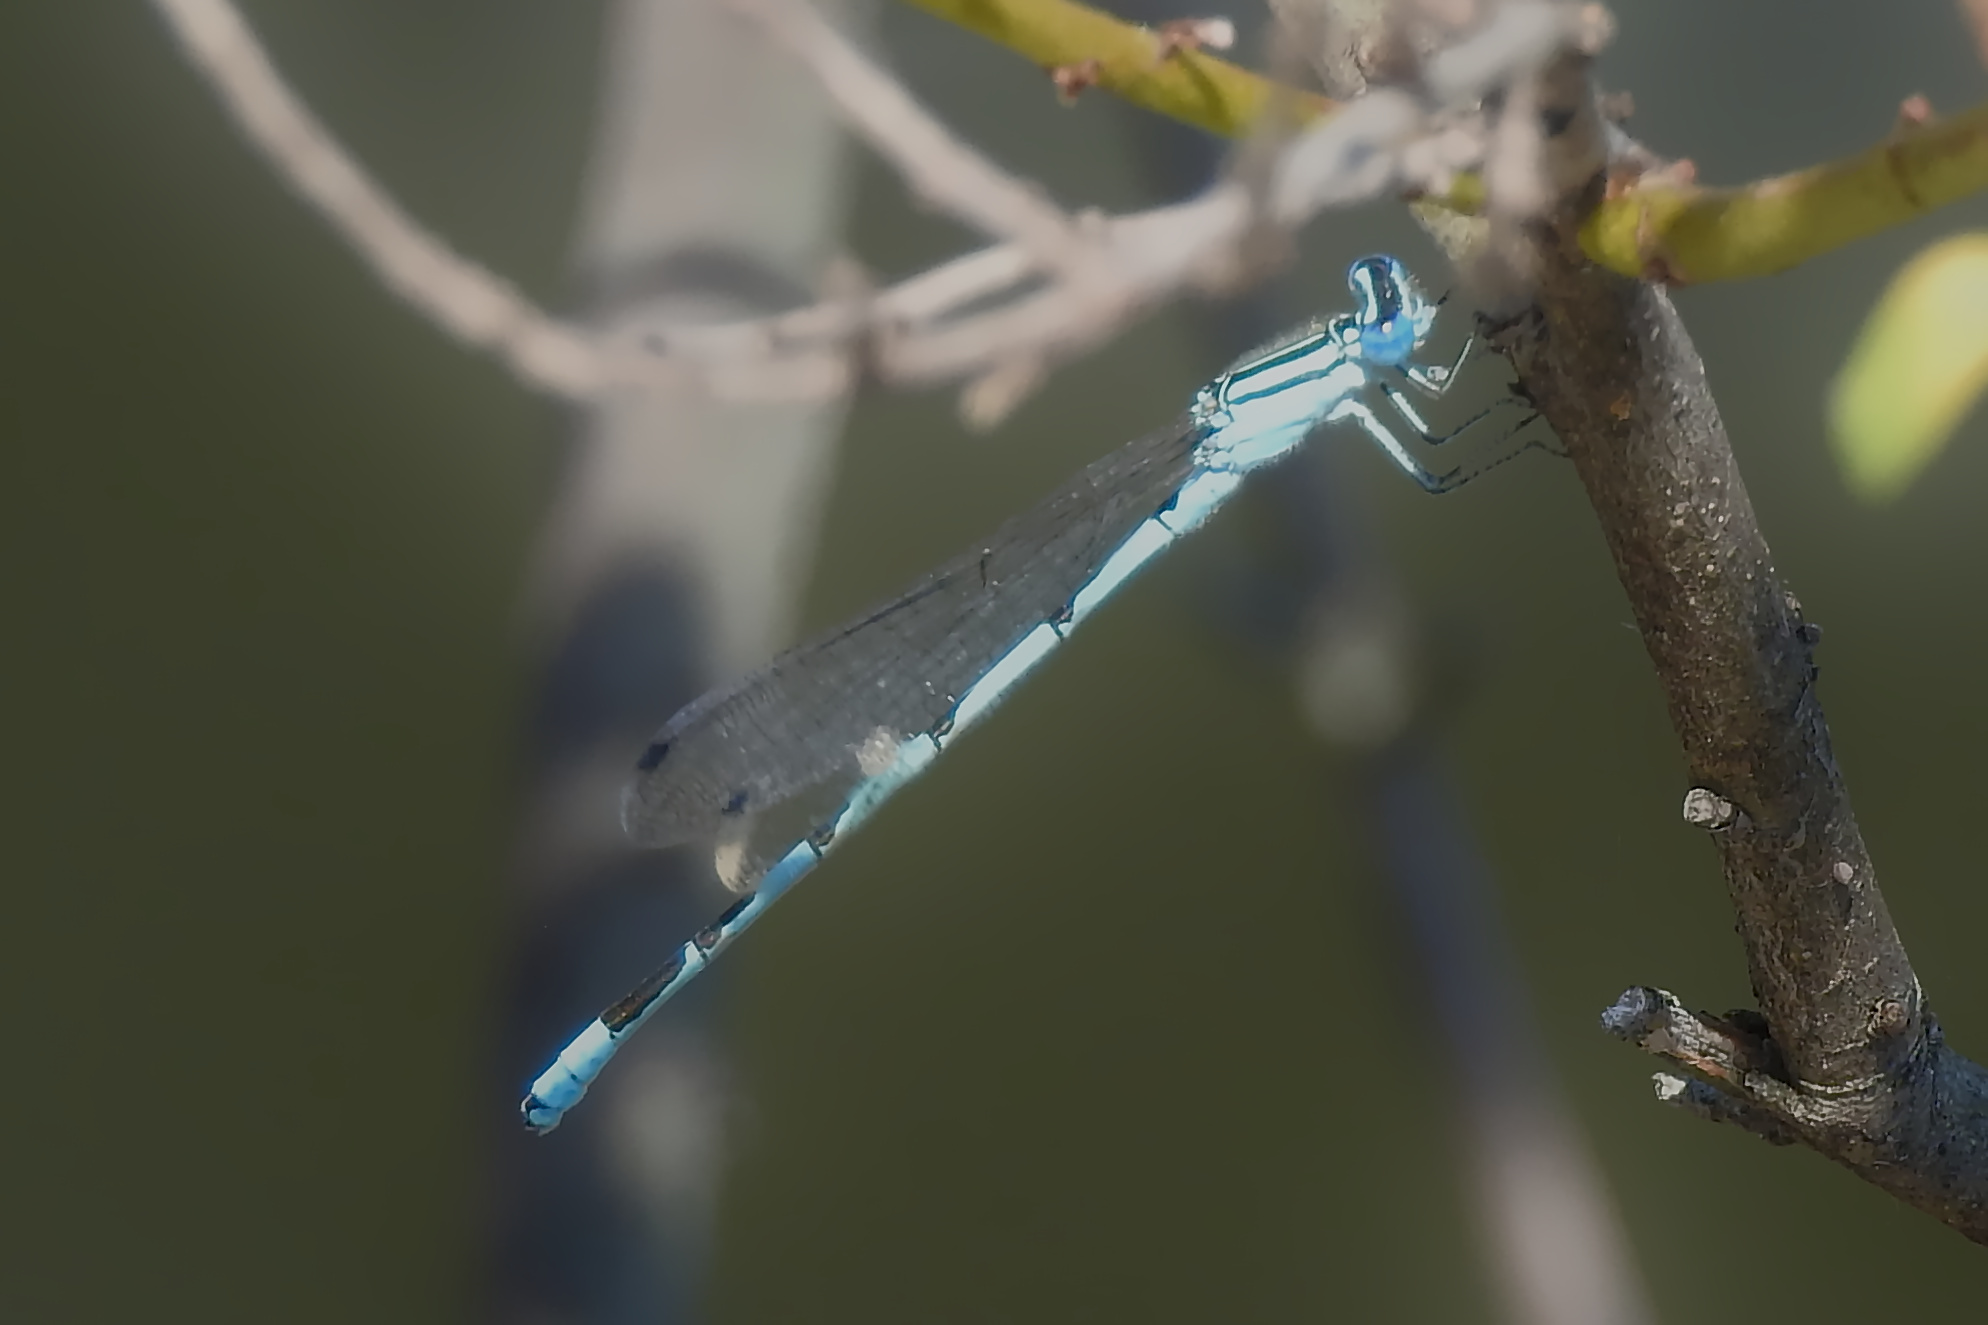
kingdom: Animalia
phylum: Arthropoda
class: Insecta
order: Odonata
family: Coenagrionidae
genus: Enallagma
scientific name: Enallagma durum
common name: Big bluet
